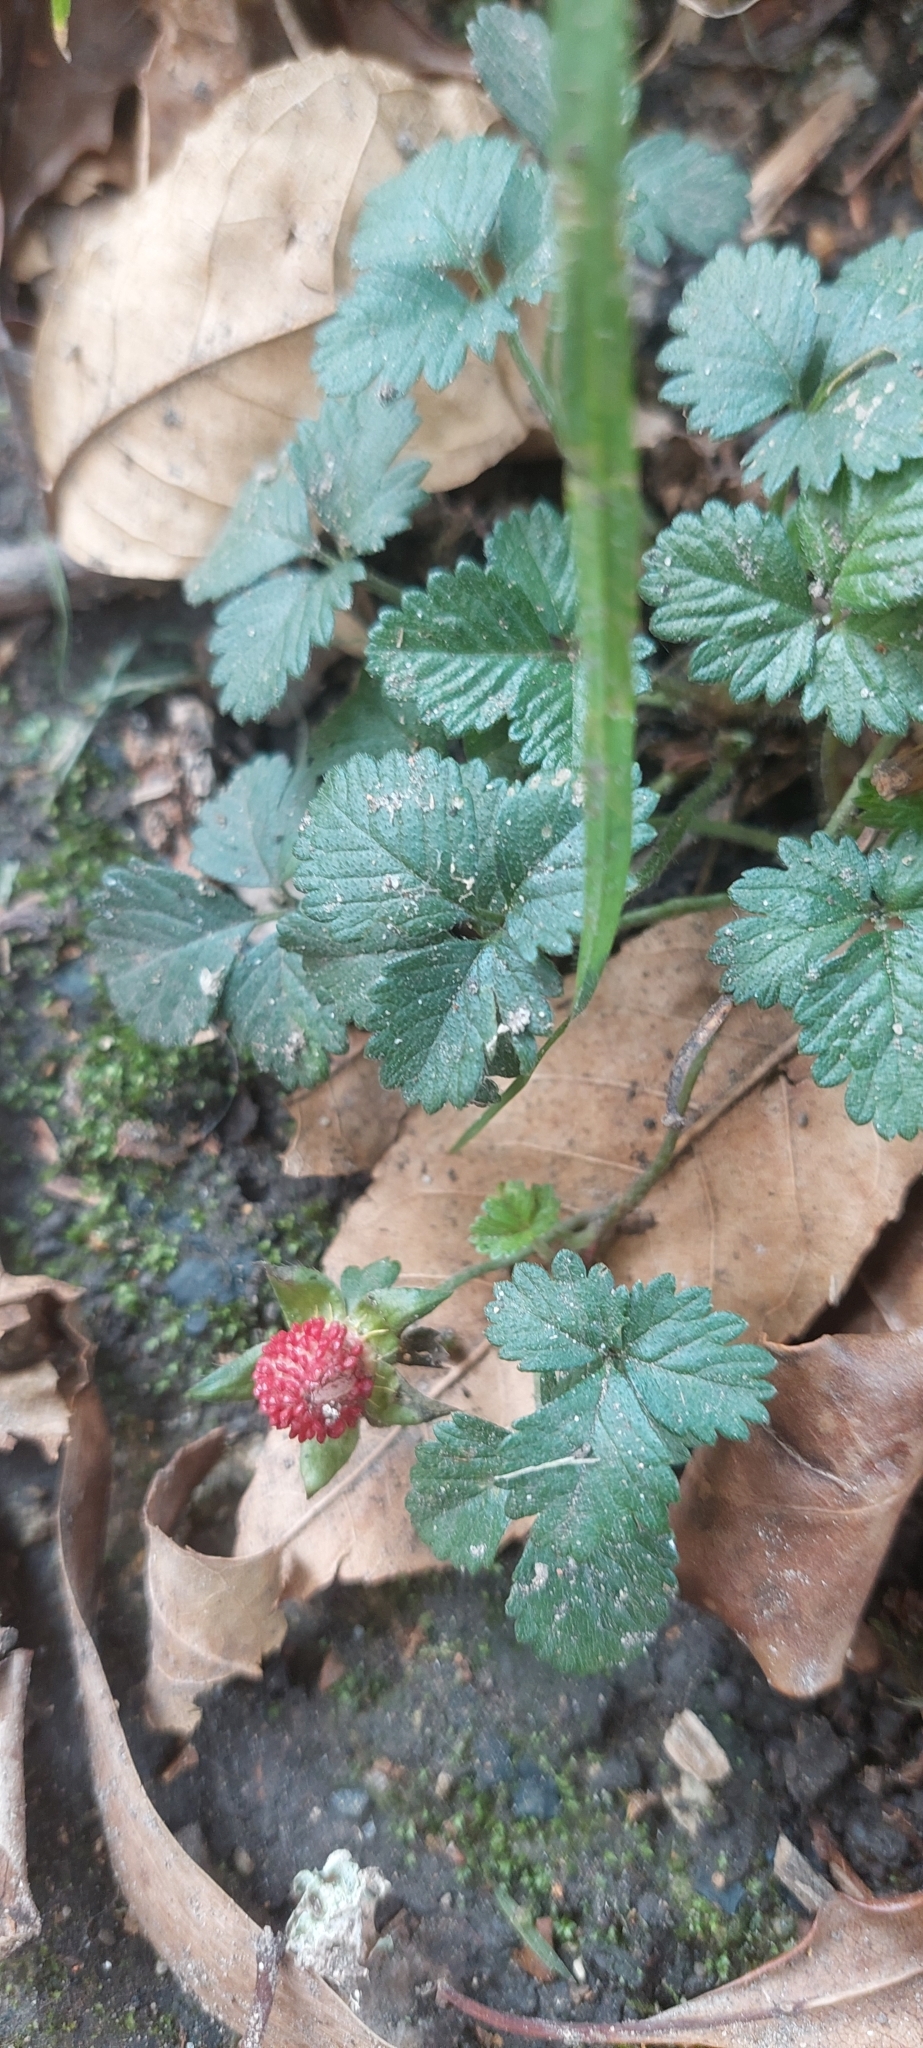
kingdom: Plantae
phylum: Tracheophyta
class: Magnoliopsida
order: Rosales
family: Rosaceae
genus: Potentilla
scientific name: Potentilla indica
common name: Yellow-flowered strawberry
